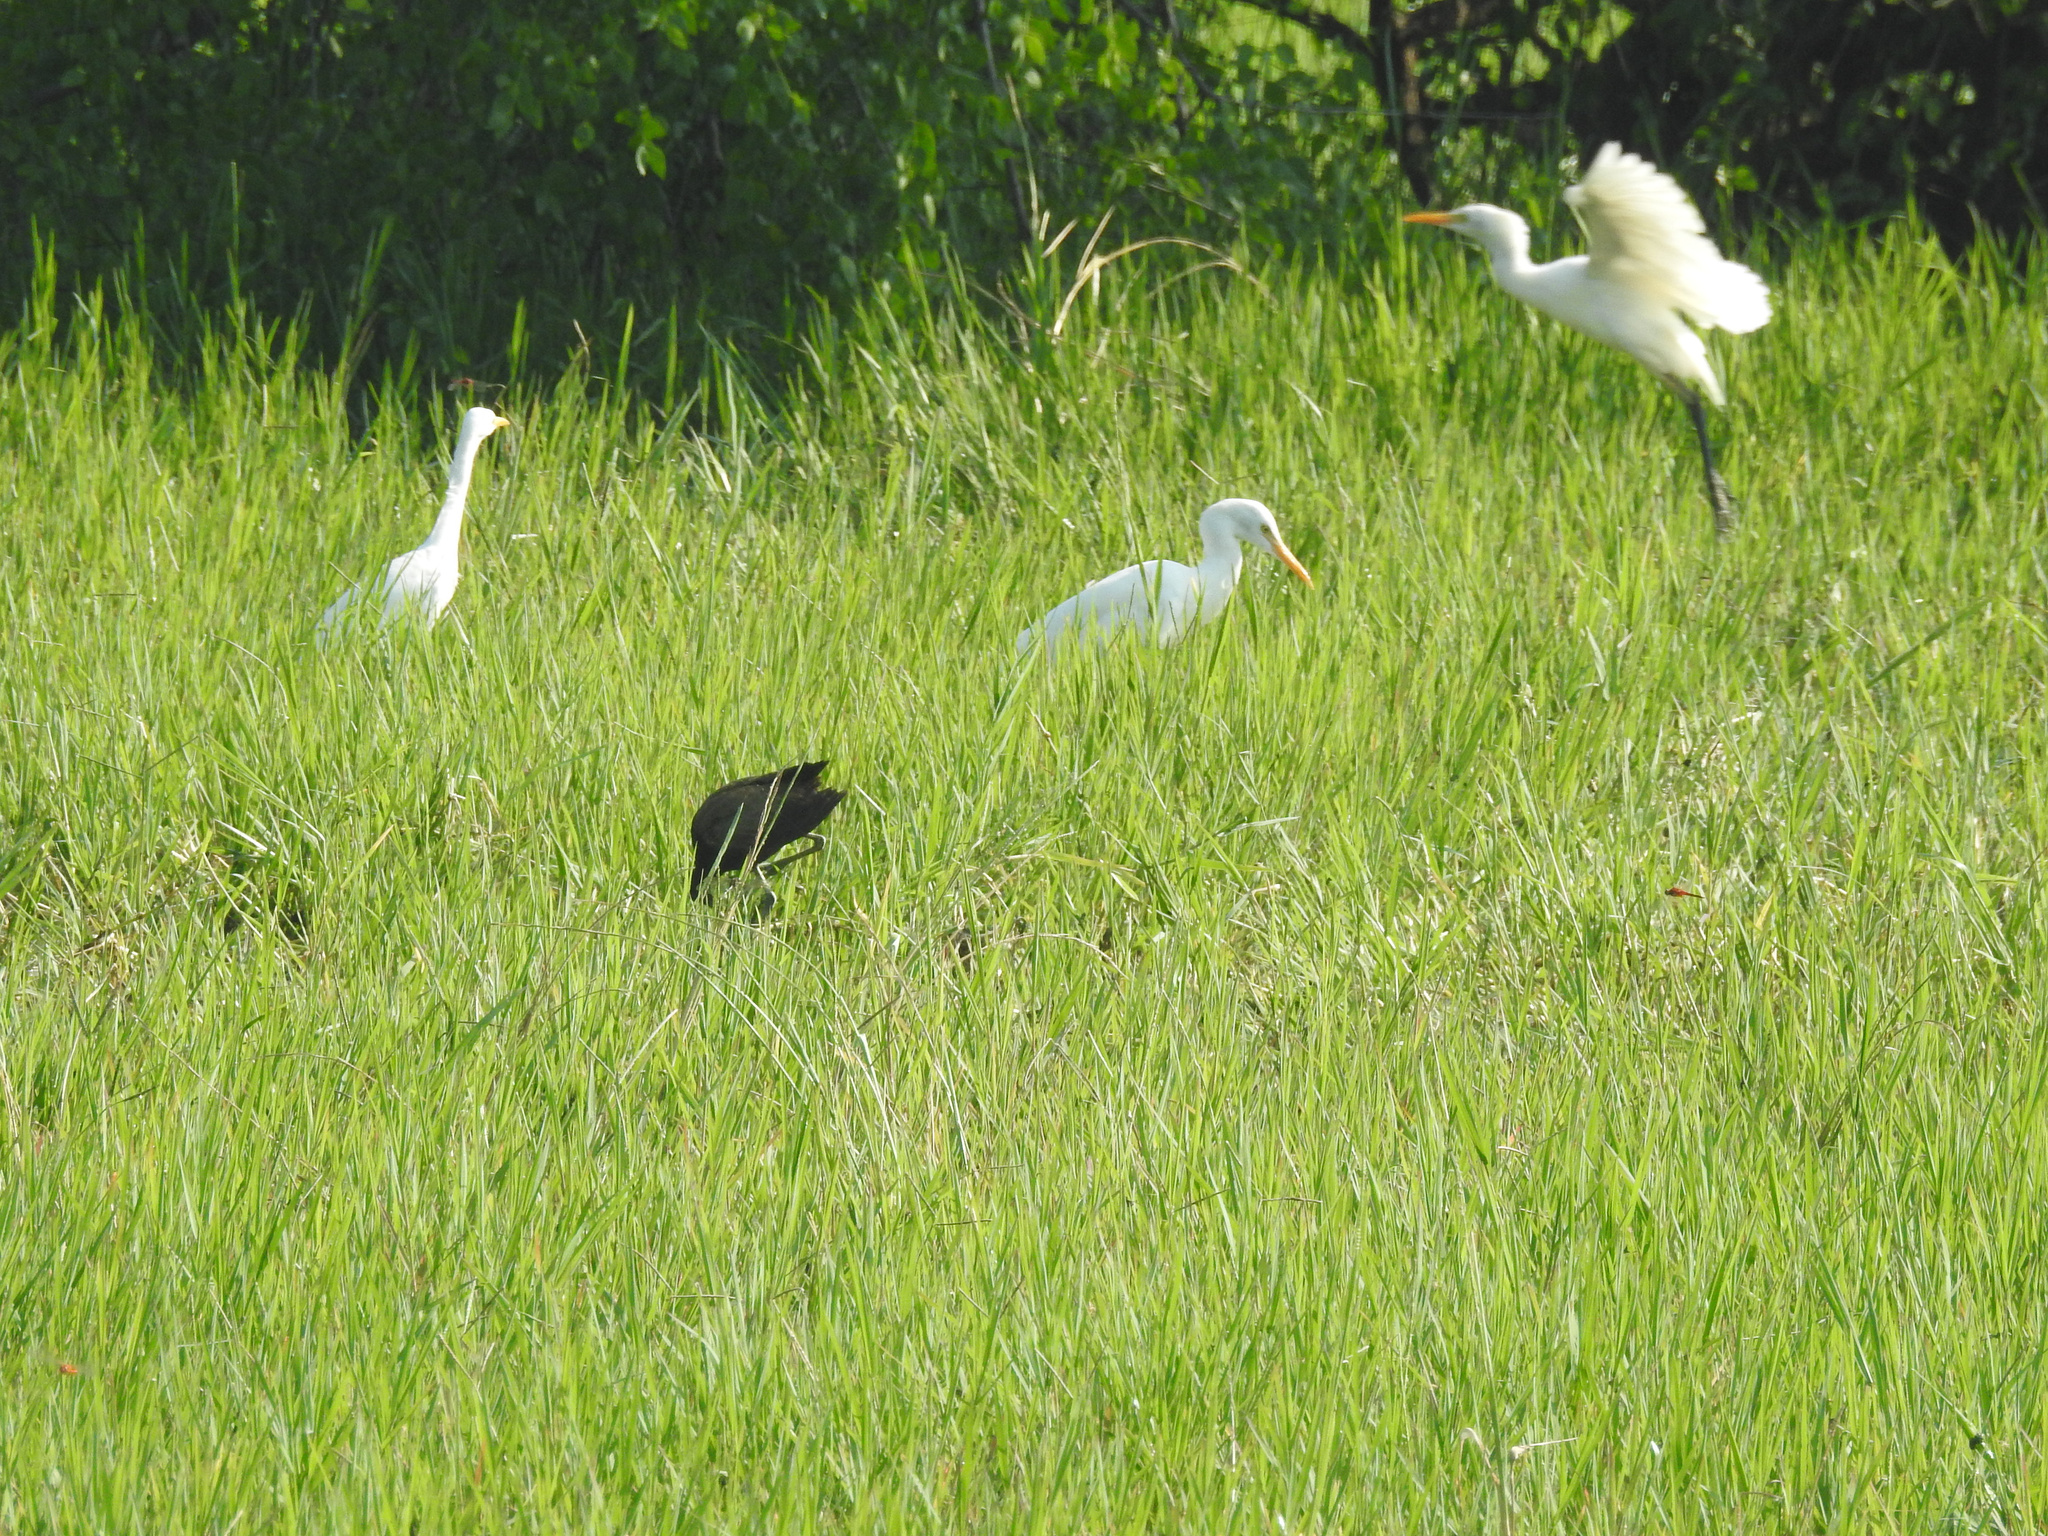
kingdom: Animalia
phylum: Chordata
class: Aves
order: Pelecaniformes
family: Ardeidae
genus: Bubulcus
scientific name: Bubulcus coromandus
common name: Eastern cattle egret
